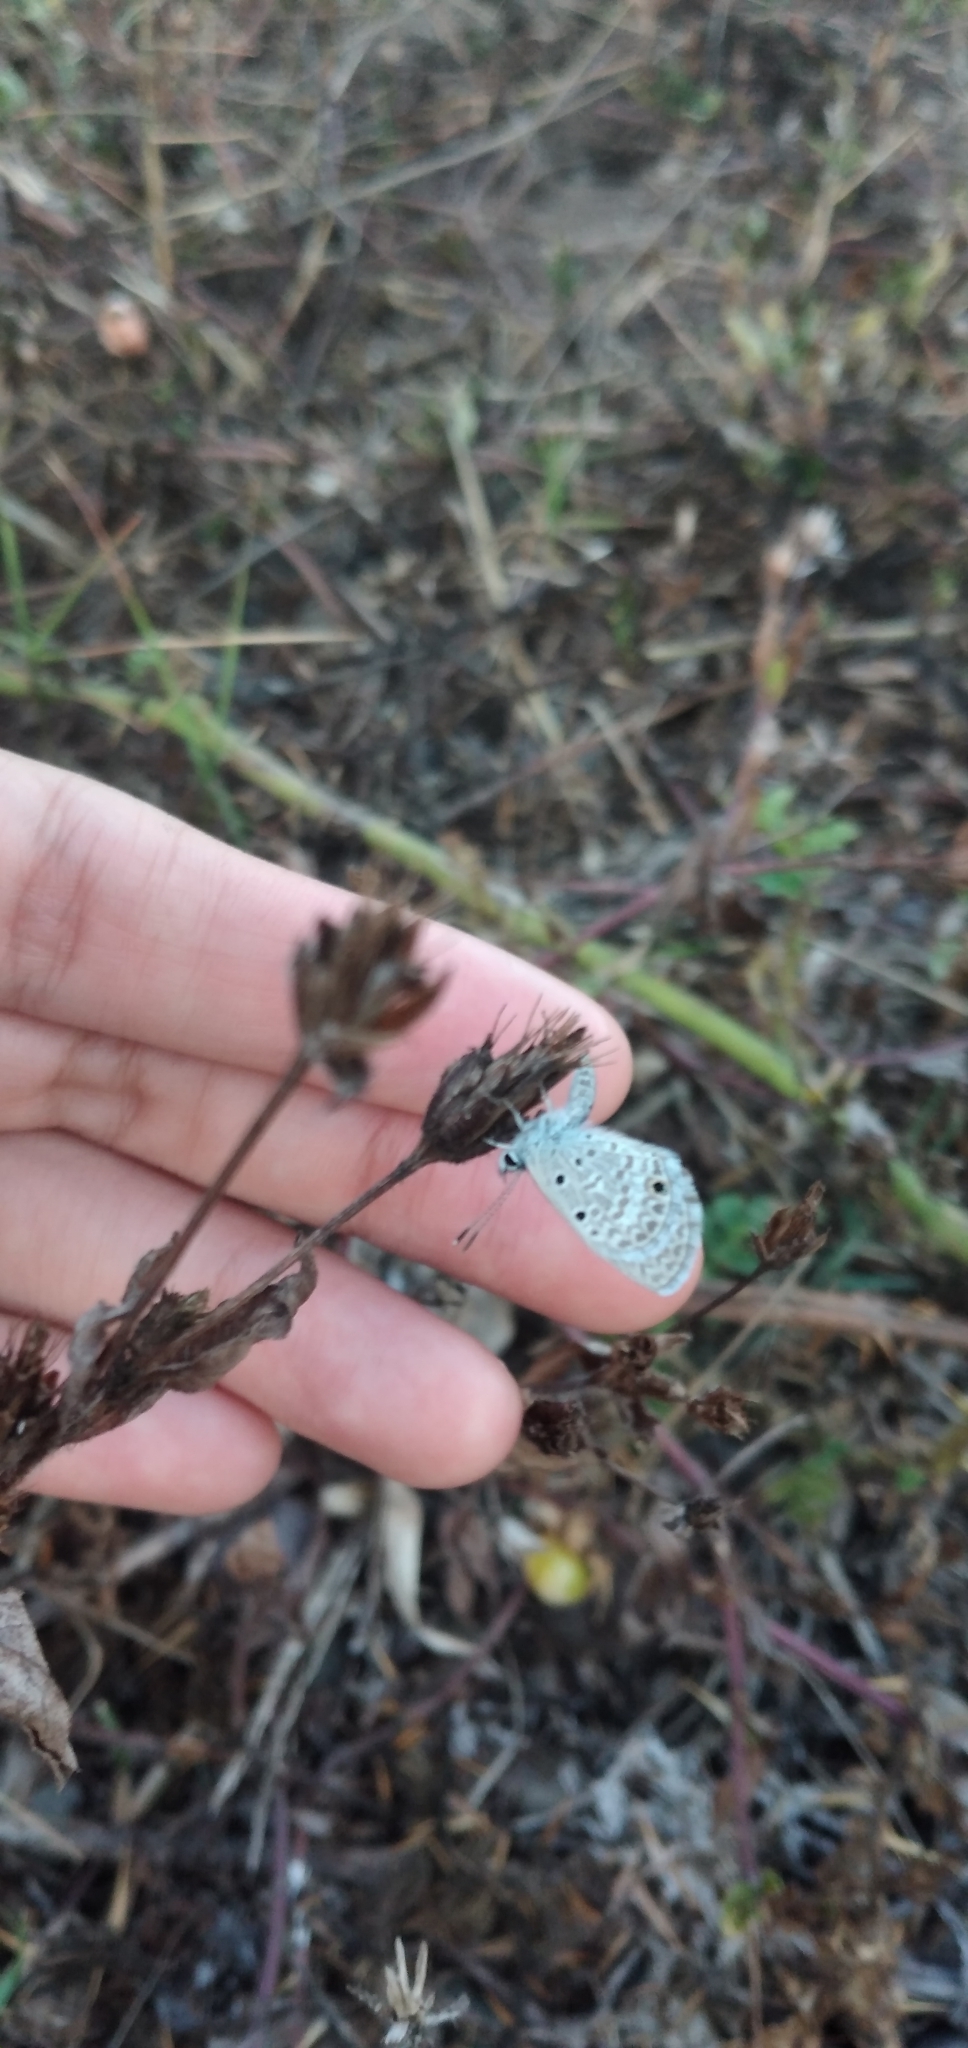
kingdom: Animalia
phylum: Arthropoda
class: Insecta
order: Lepidoptera
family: Lycaenidae
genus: Hemiargus
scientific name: Hemiargus hanno
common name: Common blue
